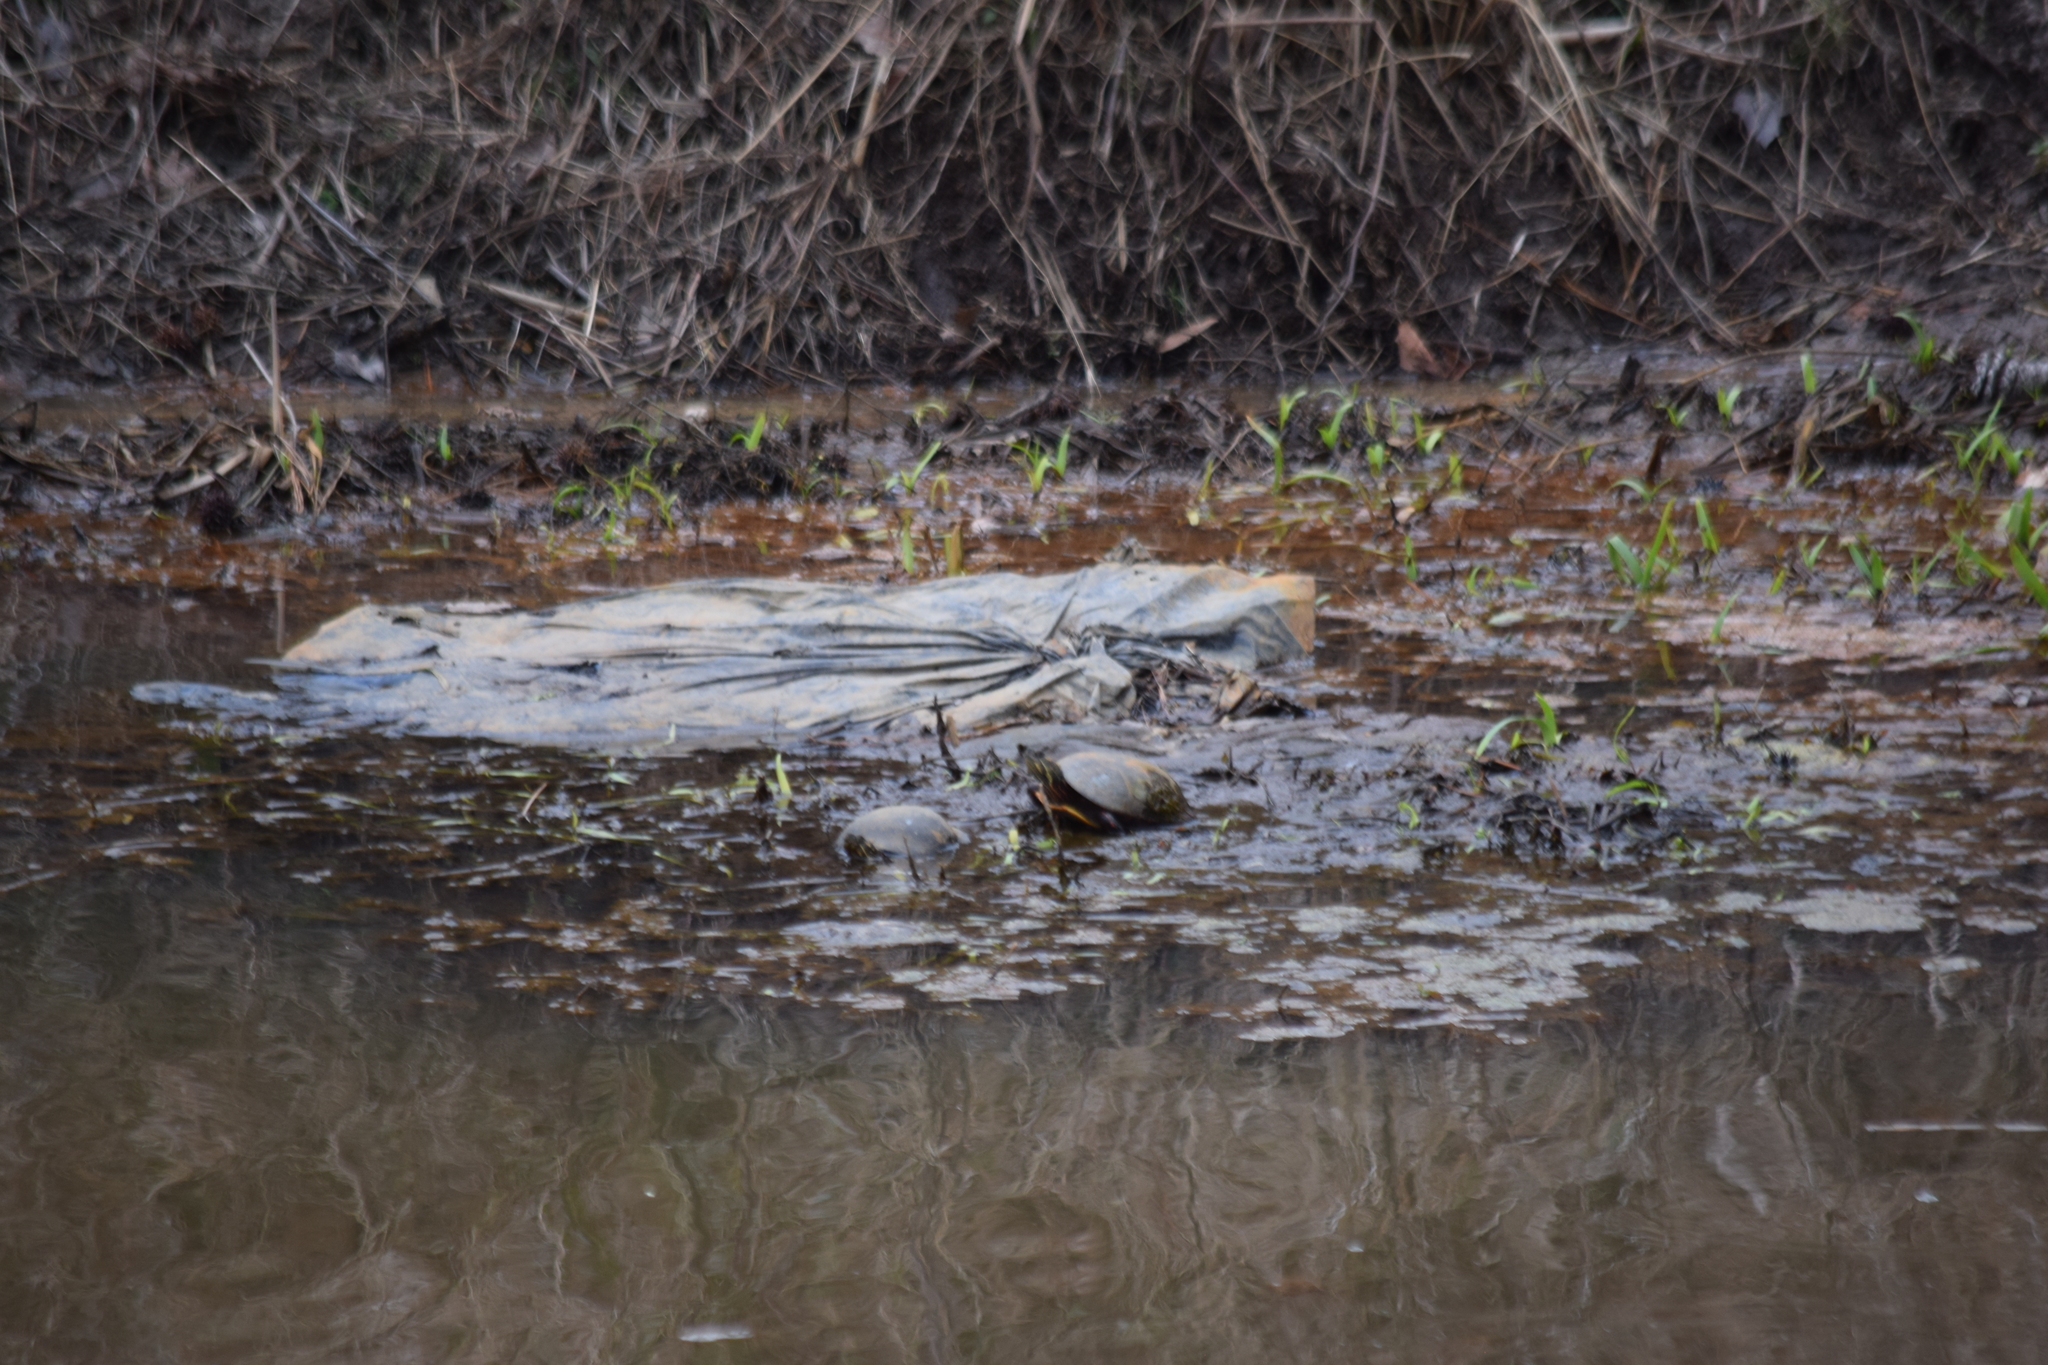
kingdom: Animalia
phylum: Chordata
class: Testudines
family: Emydidae
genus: Chrysemys
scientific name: Chrysemys picta
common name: Painted turtle
